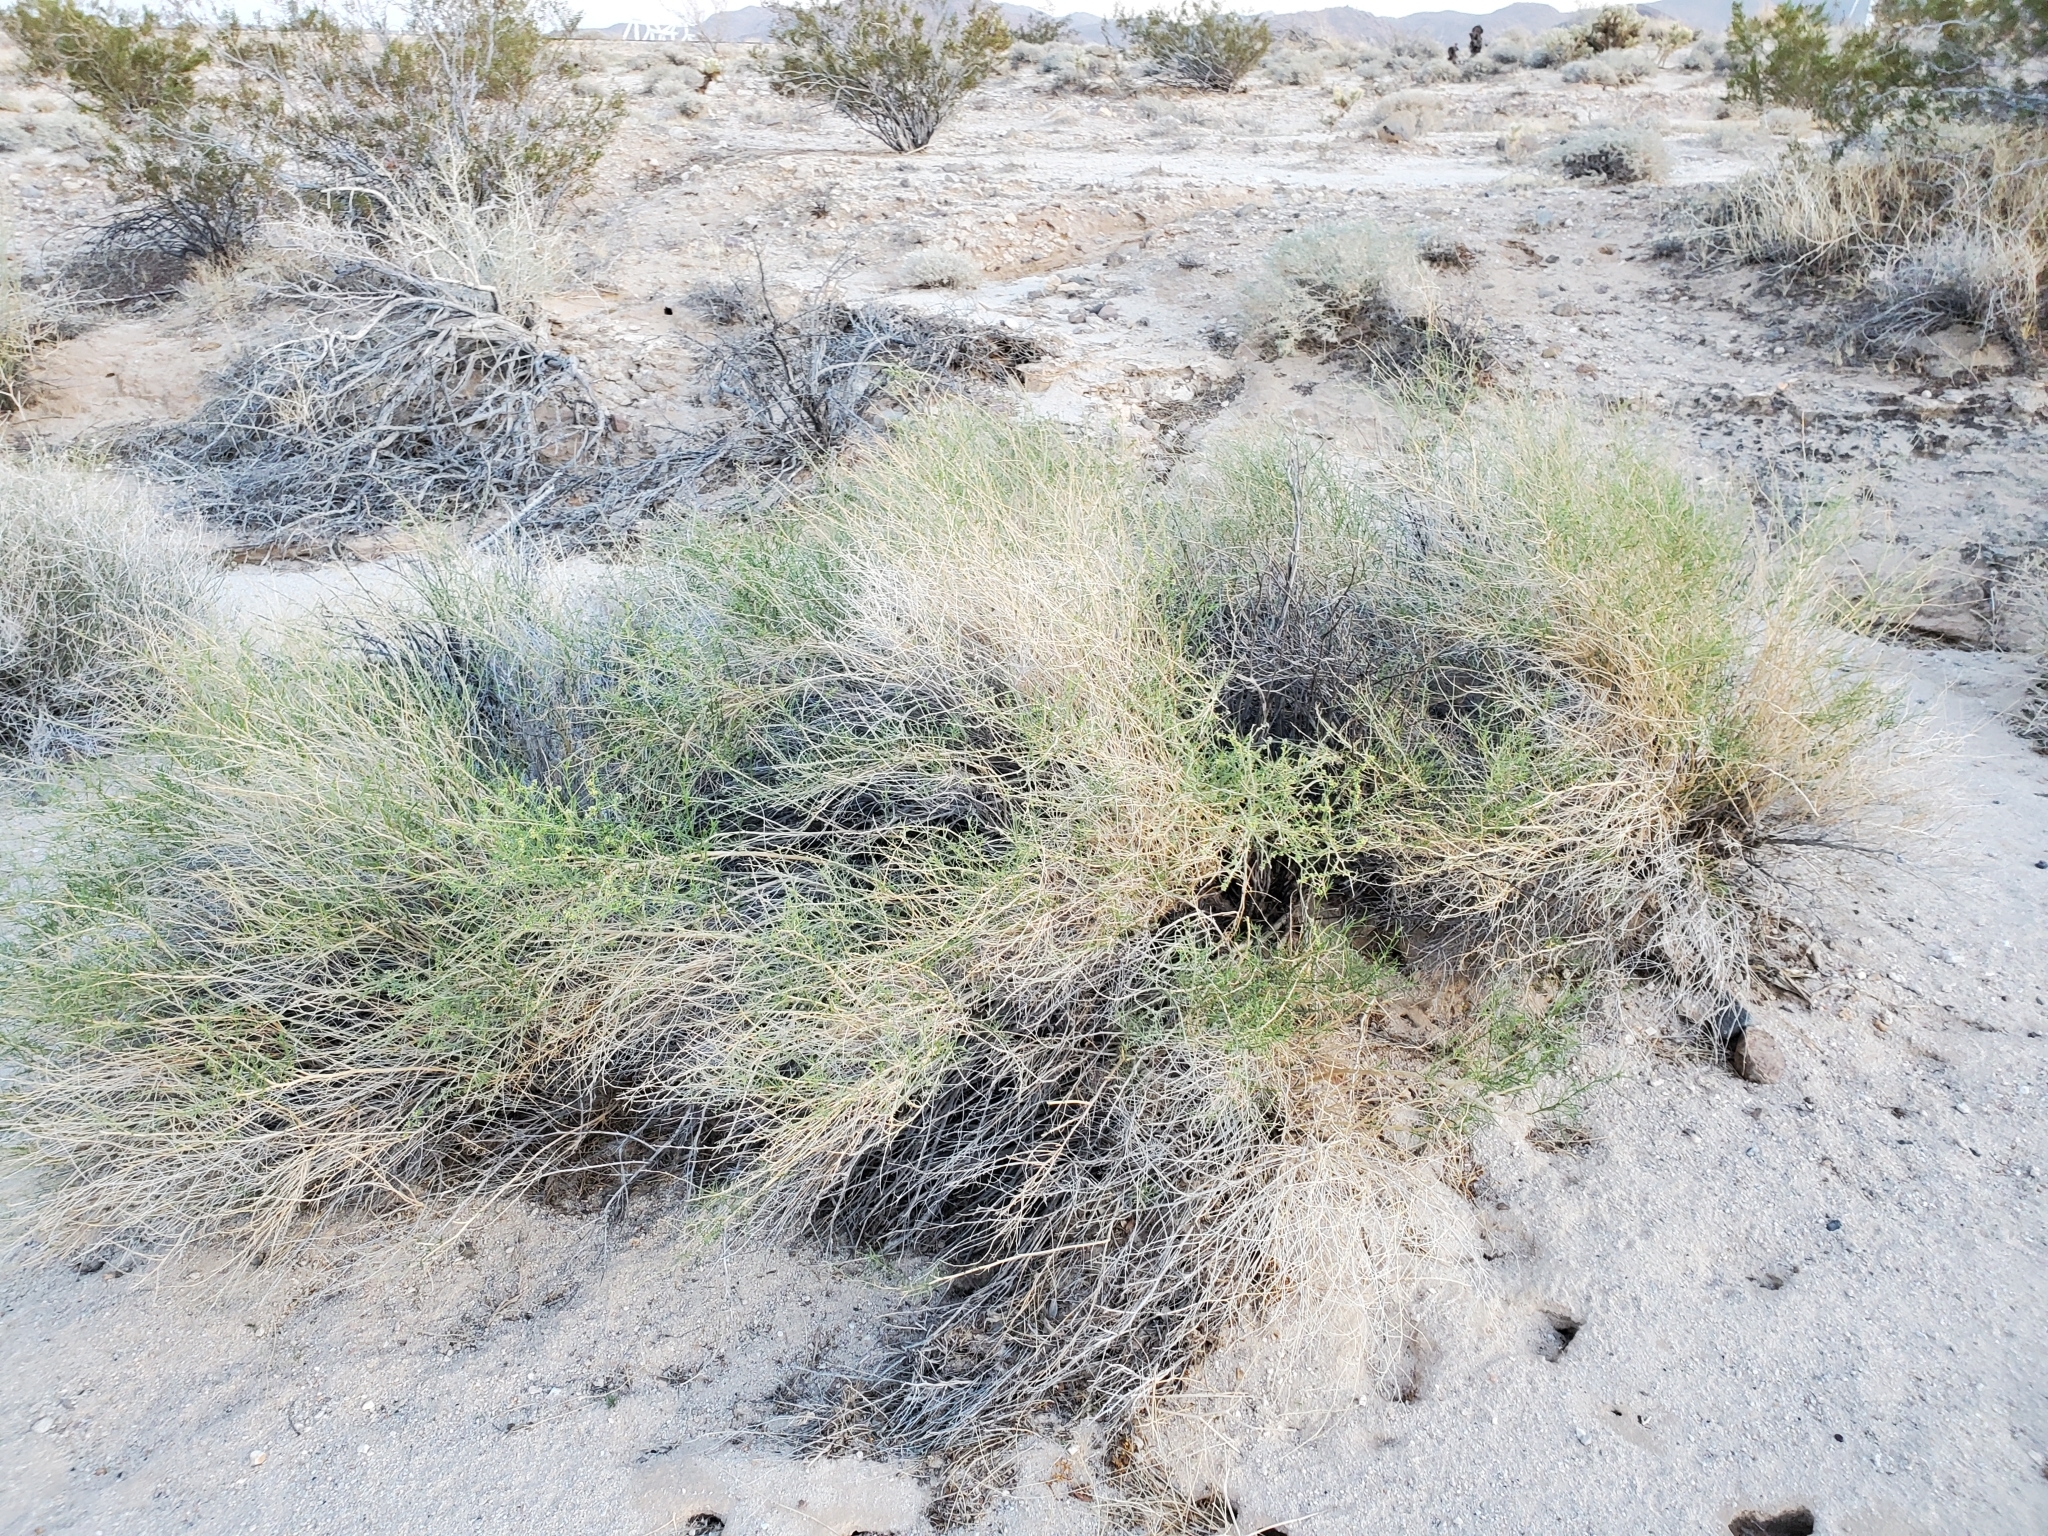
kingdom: Plantae
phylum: Tracheophyta
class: Magnoliopsida
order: Asterales
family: Asteraceae
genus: Ambrosia
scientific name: Ambrosia salsola
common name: Burrobrush
